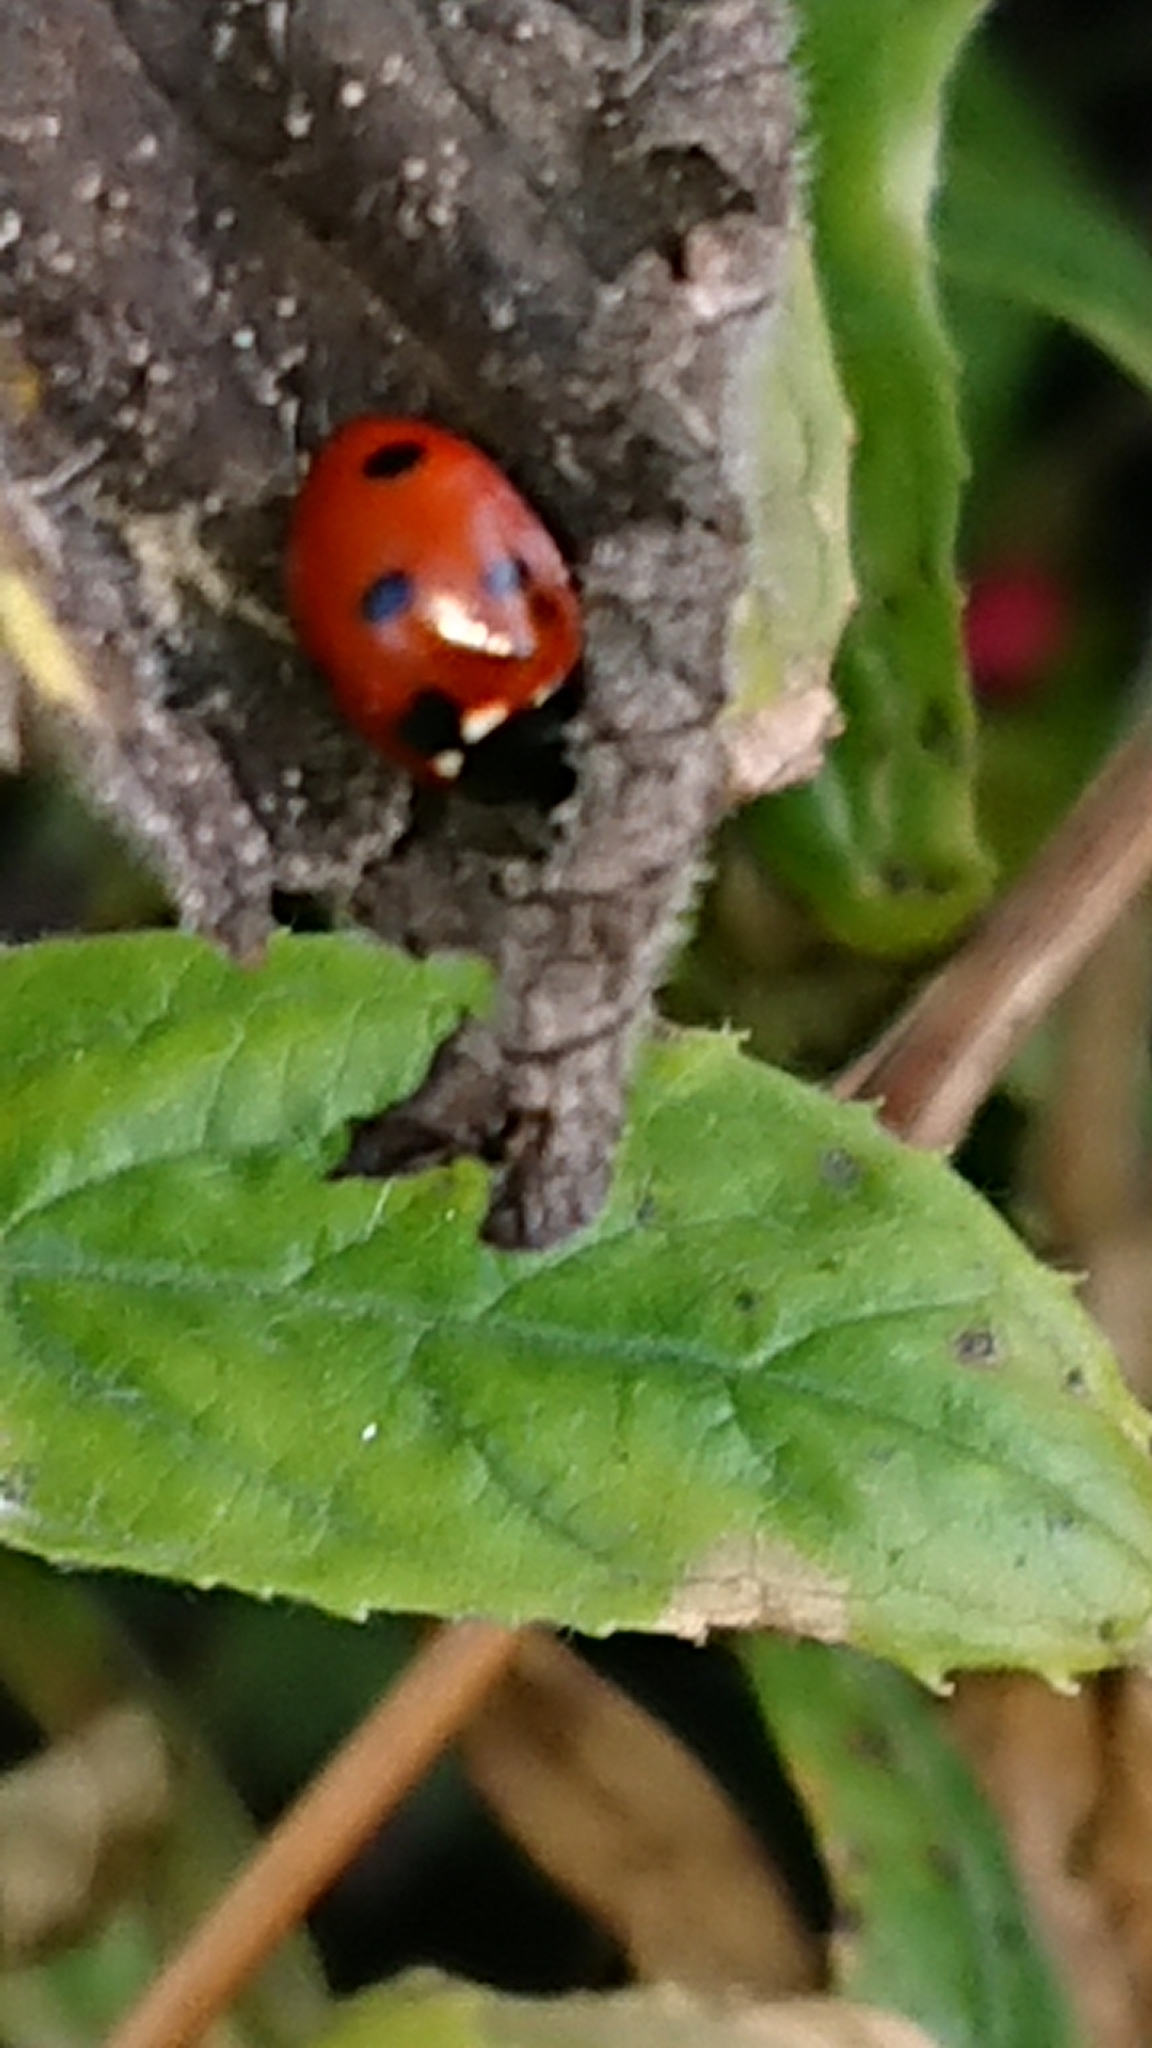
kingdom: Animalia
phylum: Arthropoda
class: Insecta
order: Coleoptera
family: Coccinellidae
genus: Coccinella
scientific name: Coccinella septempunctata
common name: Sevenspotted lady beetle
